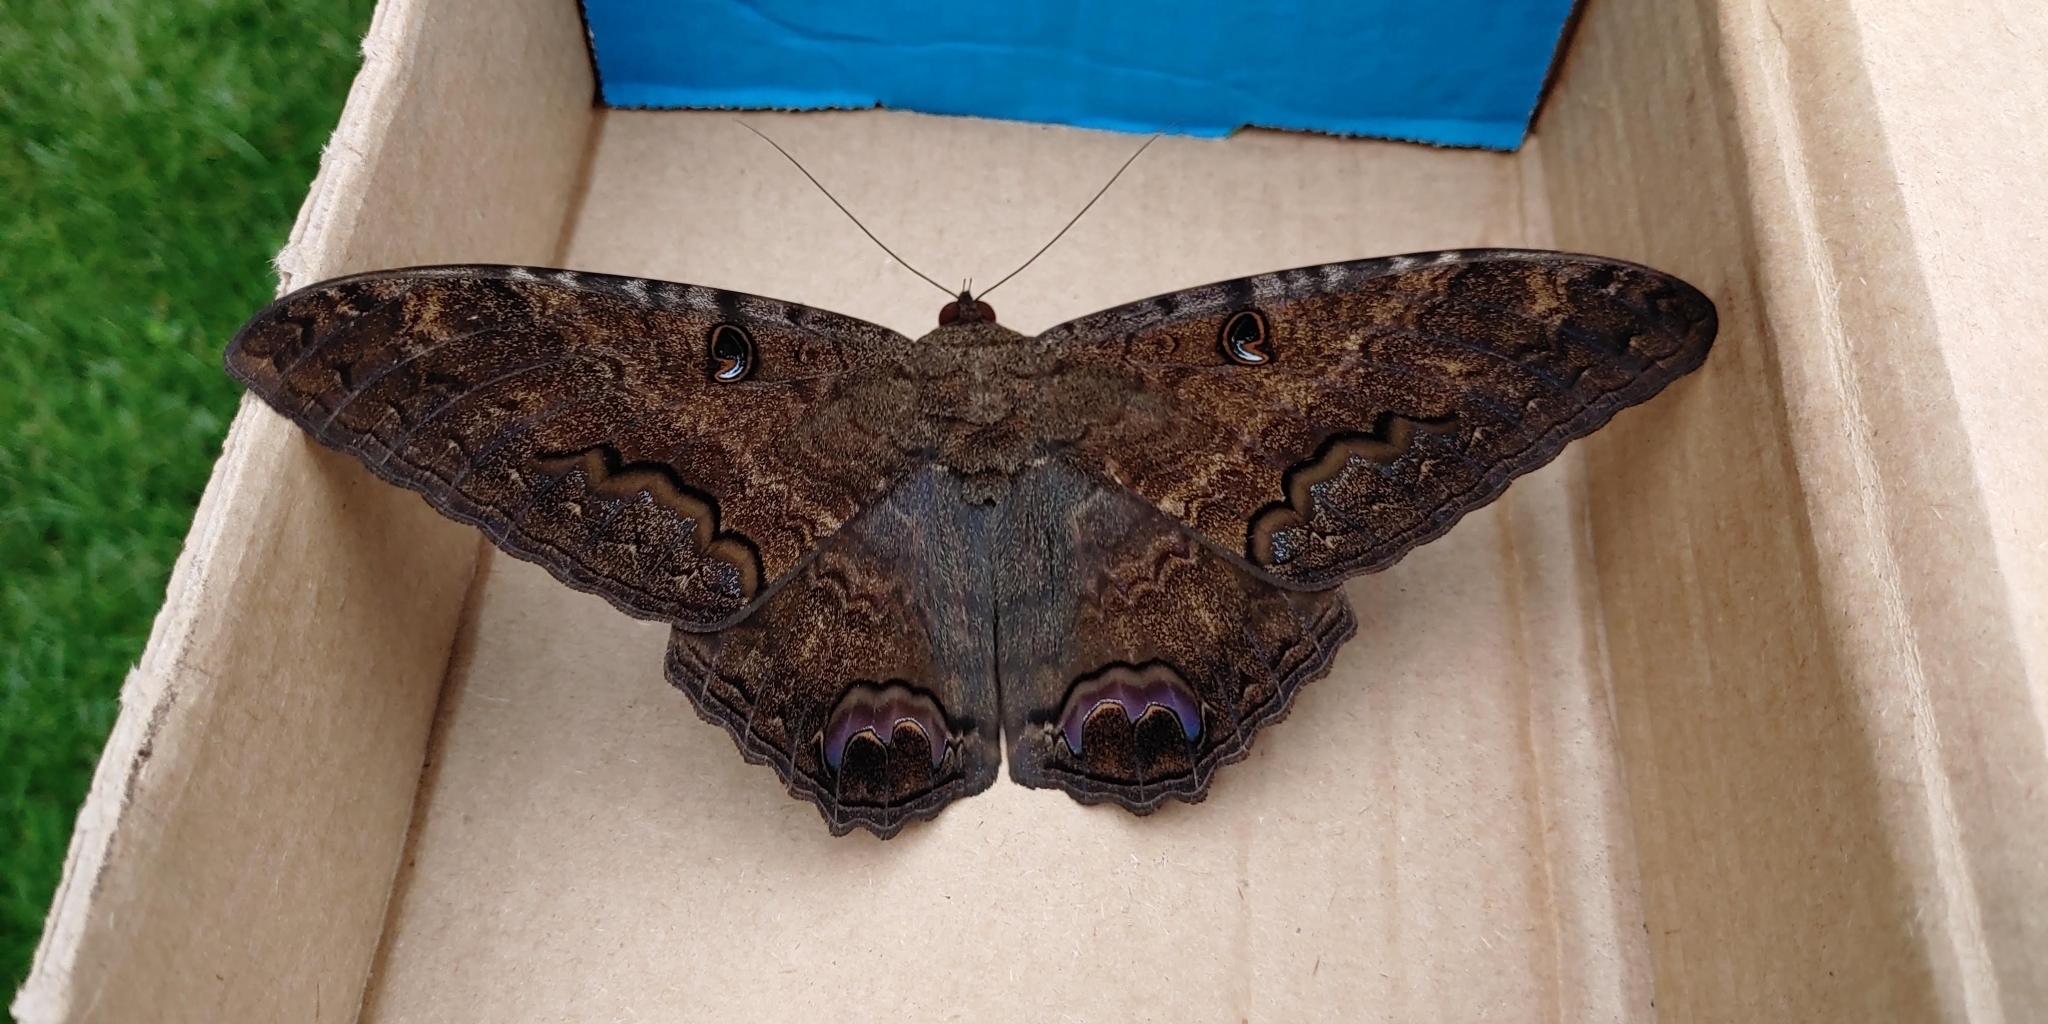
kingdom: Animalia
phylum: Arthropoda
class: Insecta
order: Lepidoptera
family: Erebidae
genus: Ascalapha
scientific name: Ascalapha odorata
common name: Black witch
